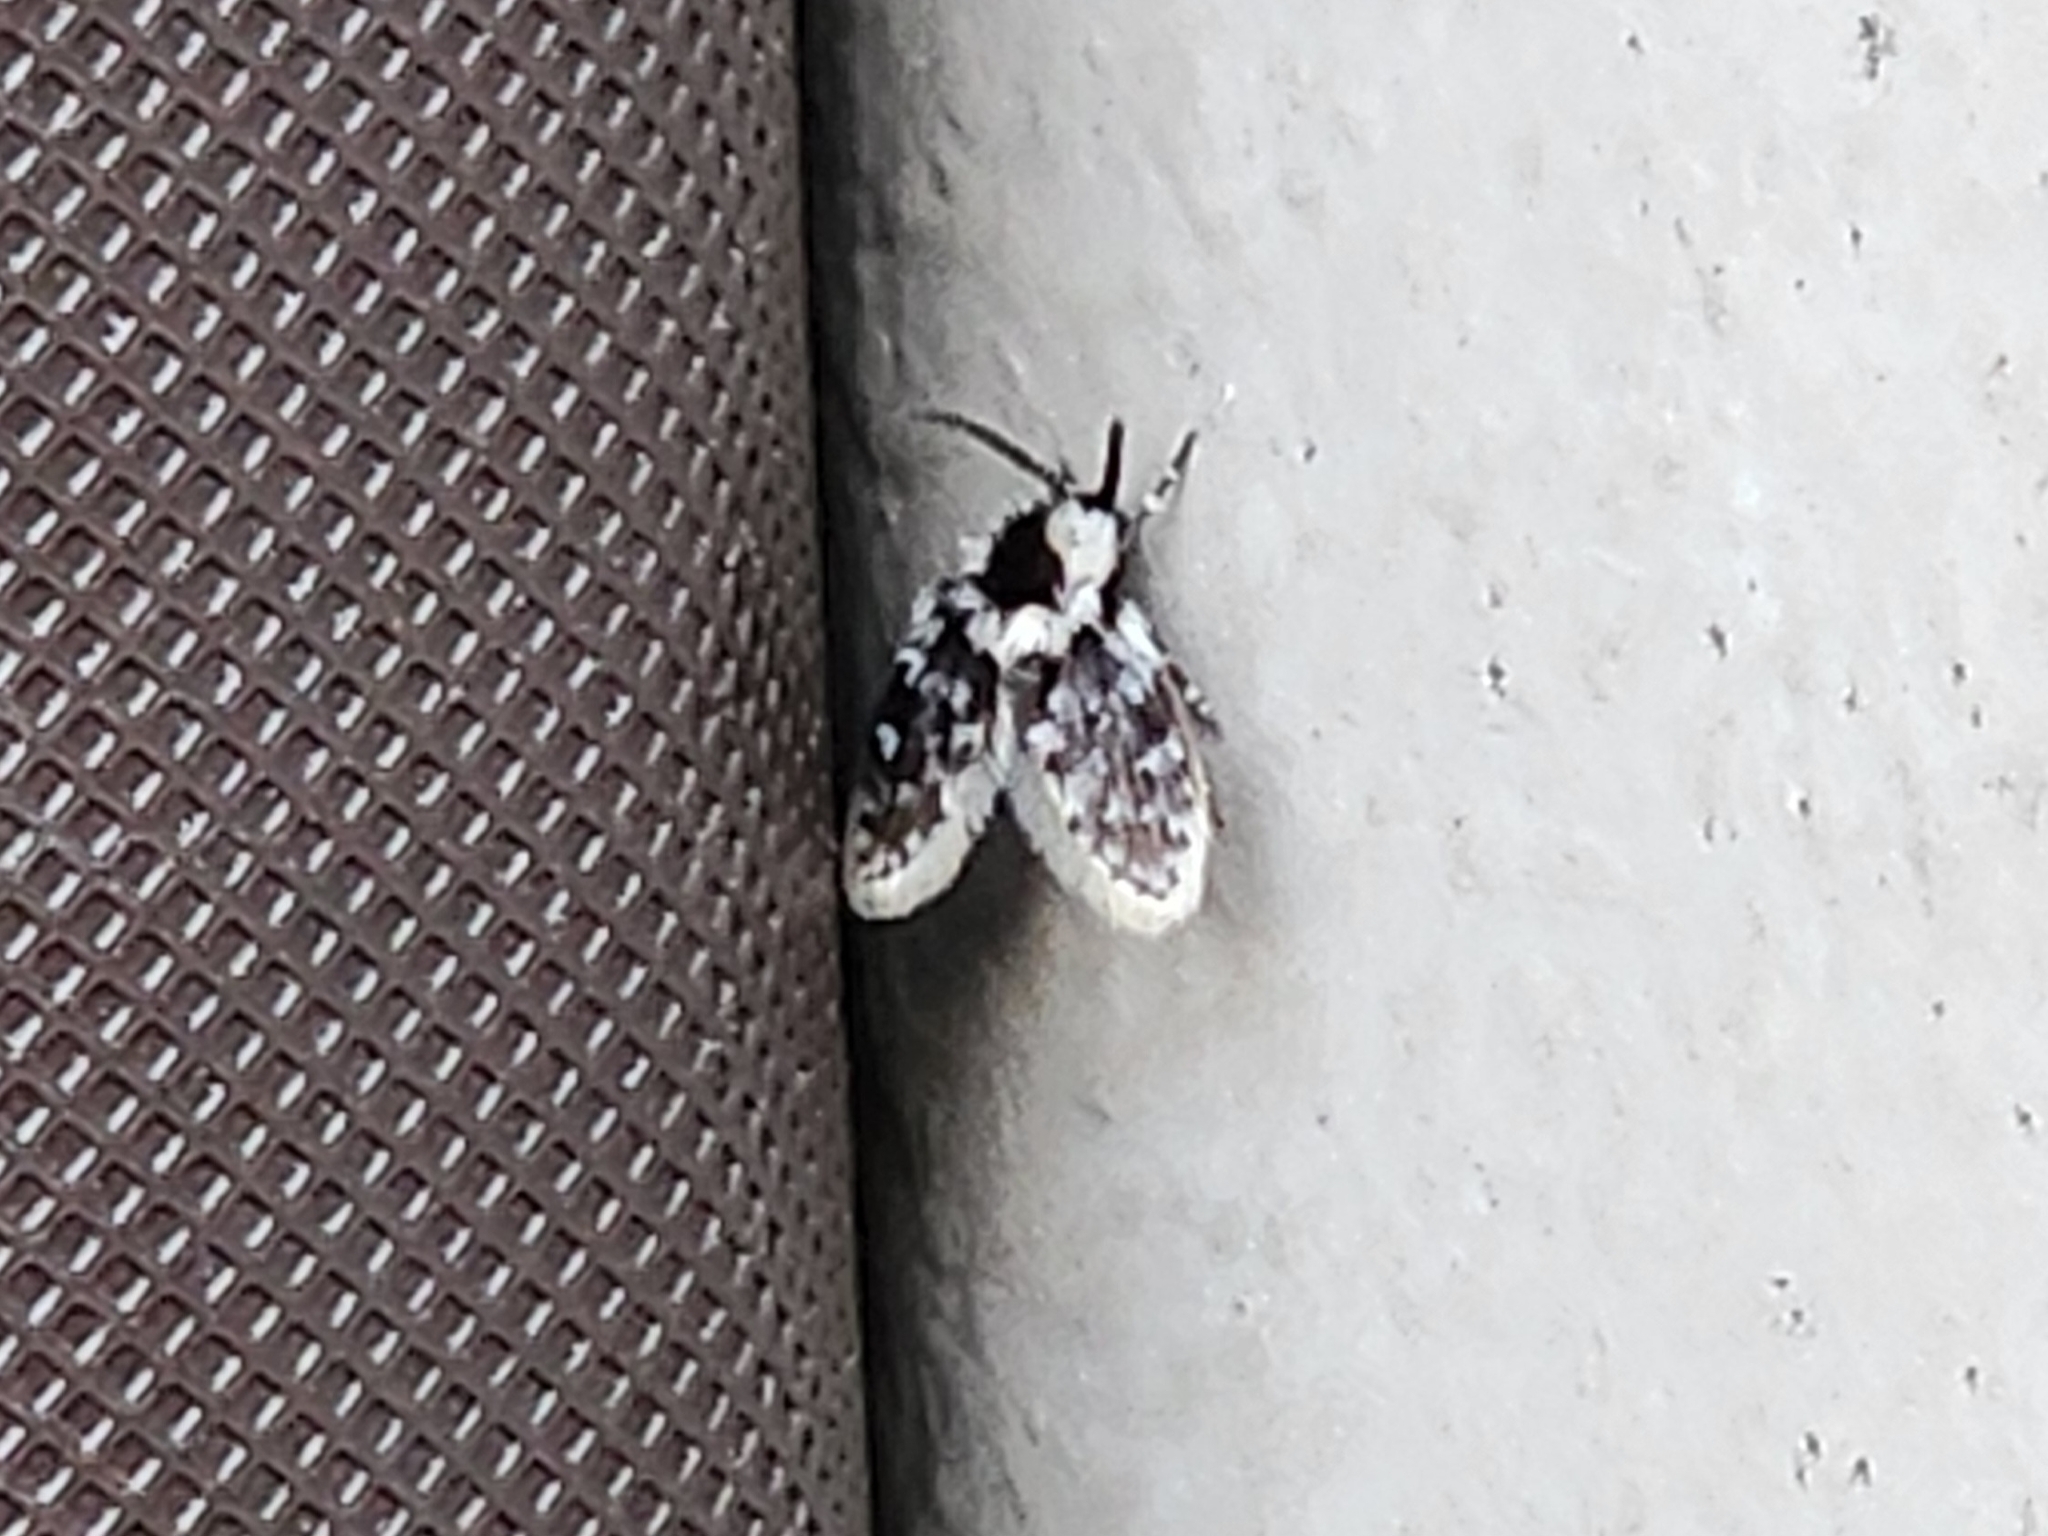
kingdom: Animalia
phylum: Arthropoda
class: Insecta
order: Diptera
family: Psychodidae
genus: Lepiseodina
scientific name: Lepiseodina
